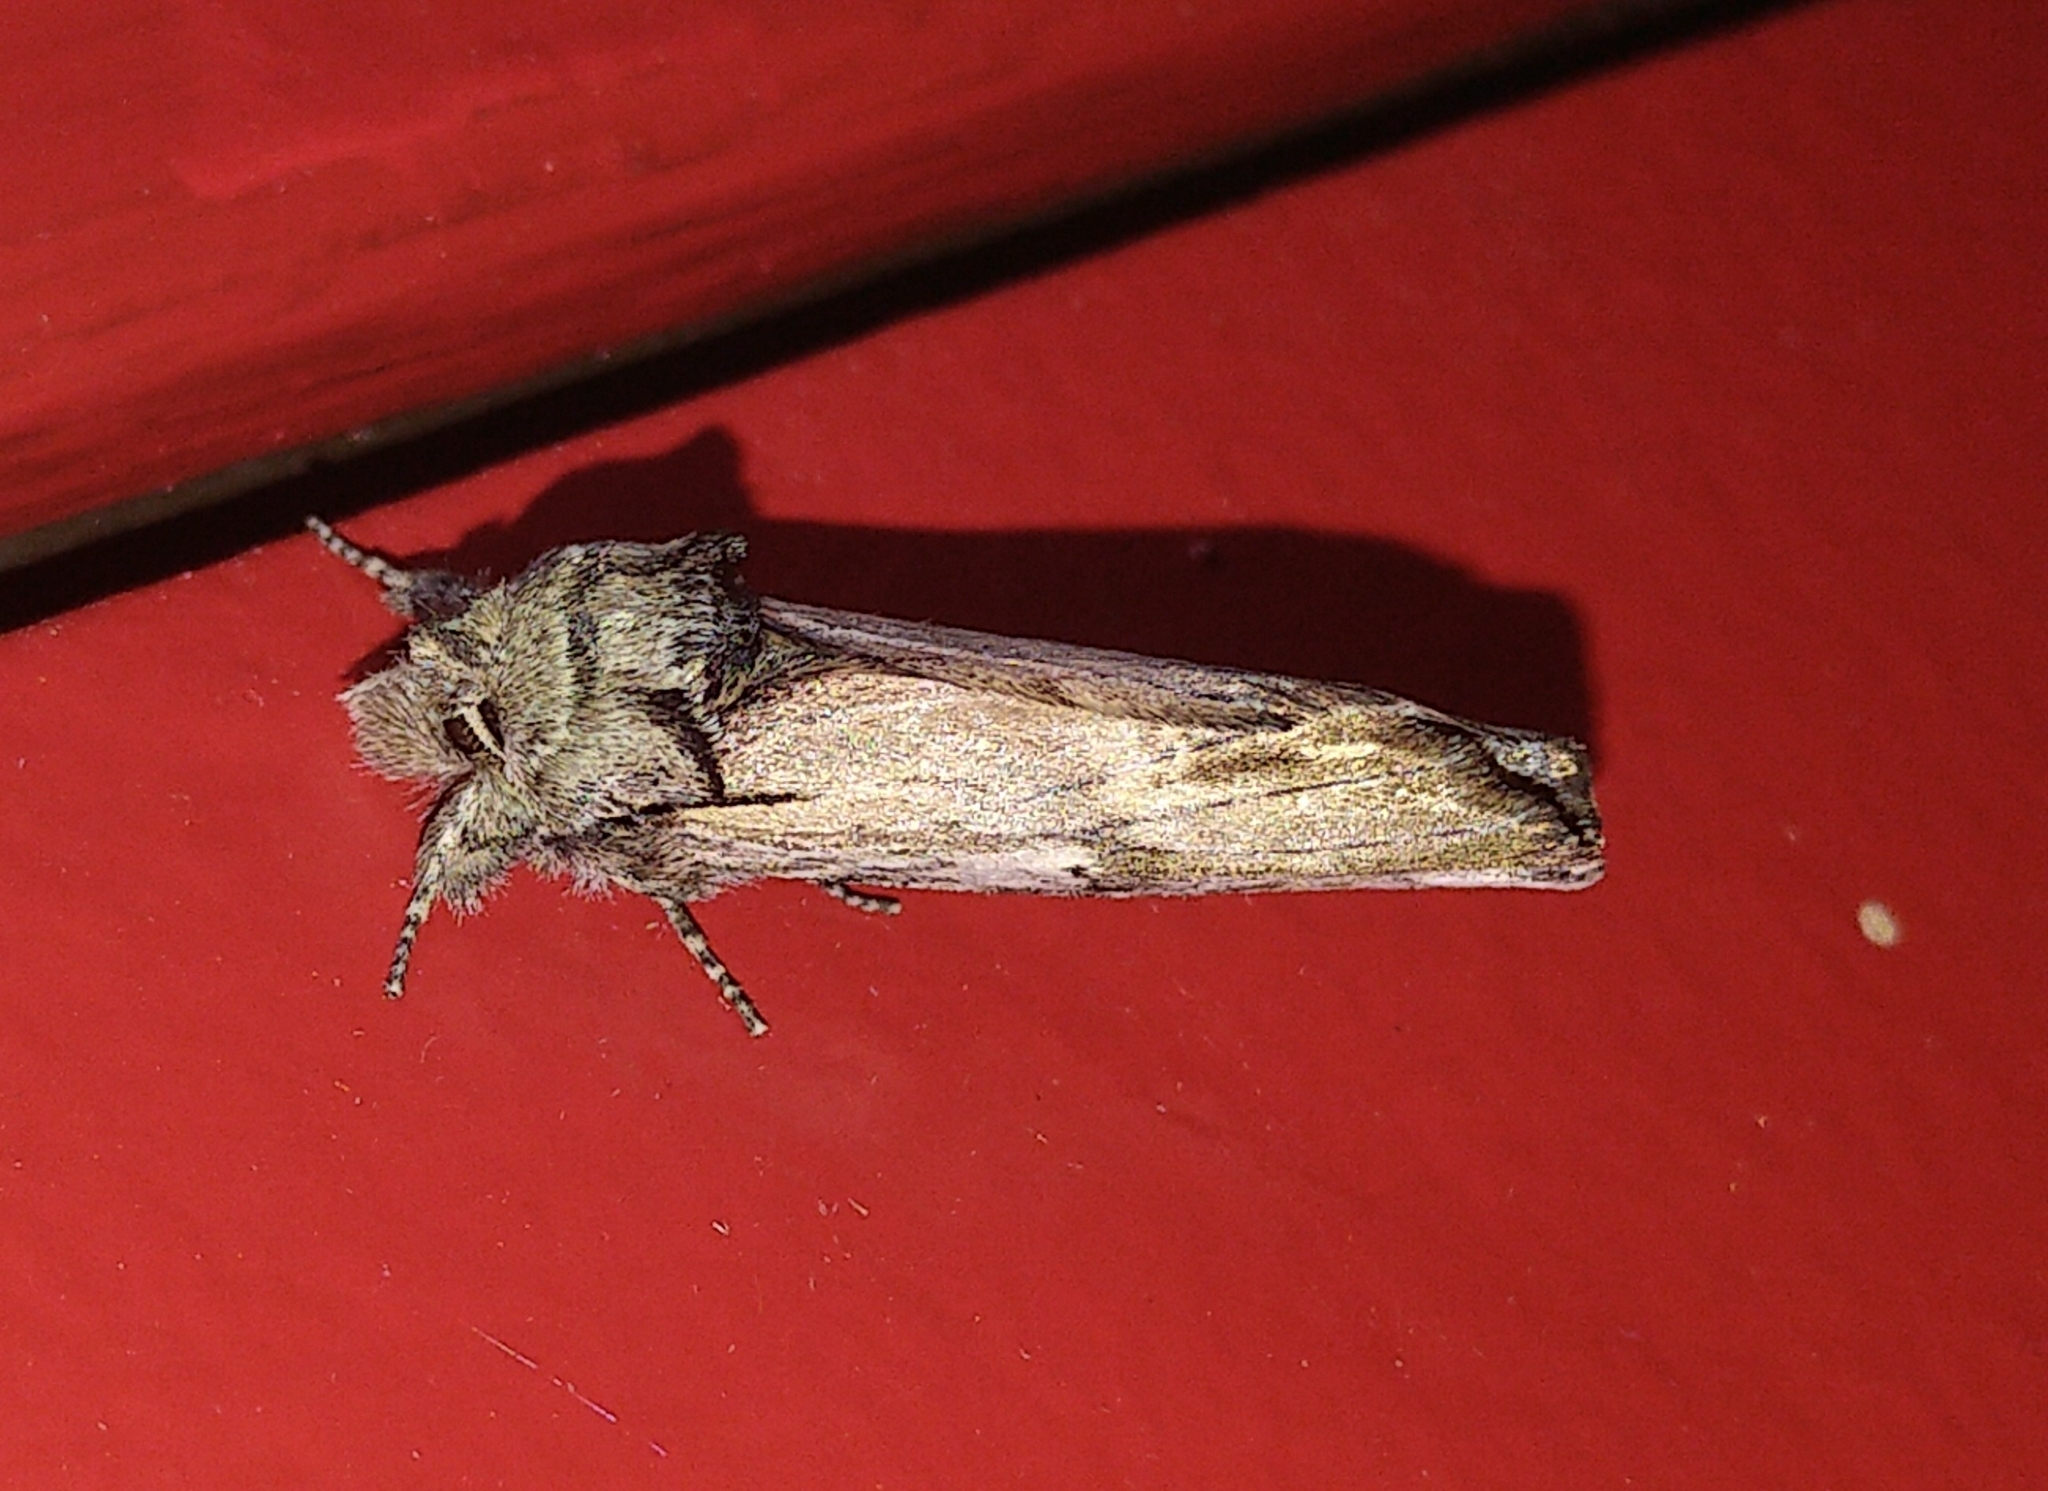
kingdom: Animalia
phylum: Arthropoda
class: Insecta
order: Lepidoptera
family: Notodontidae
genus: Schizura
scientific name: Schizura
